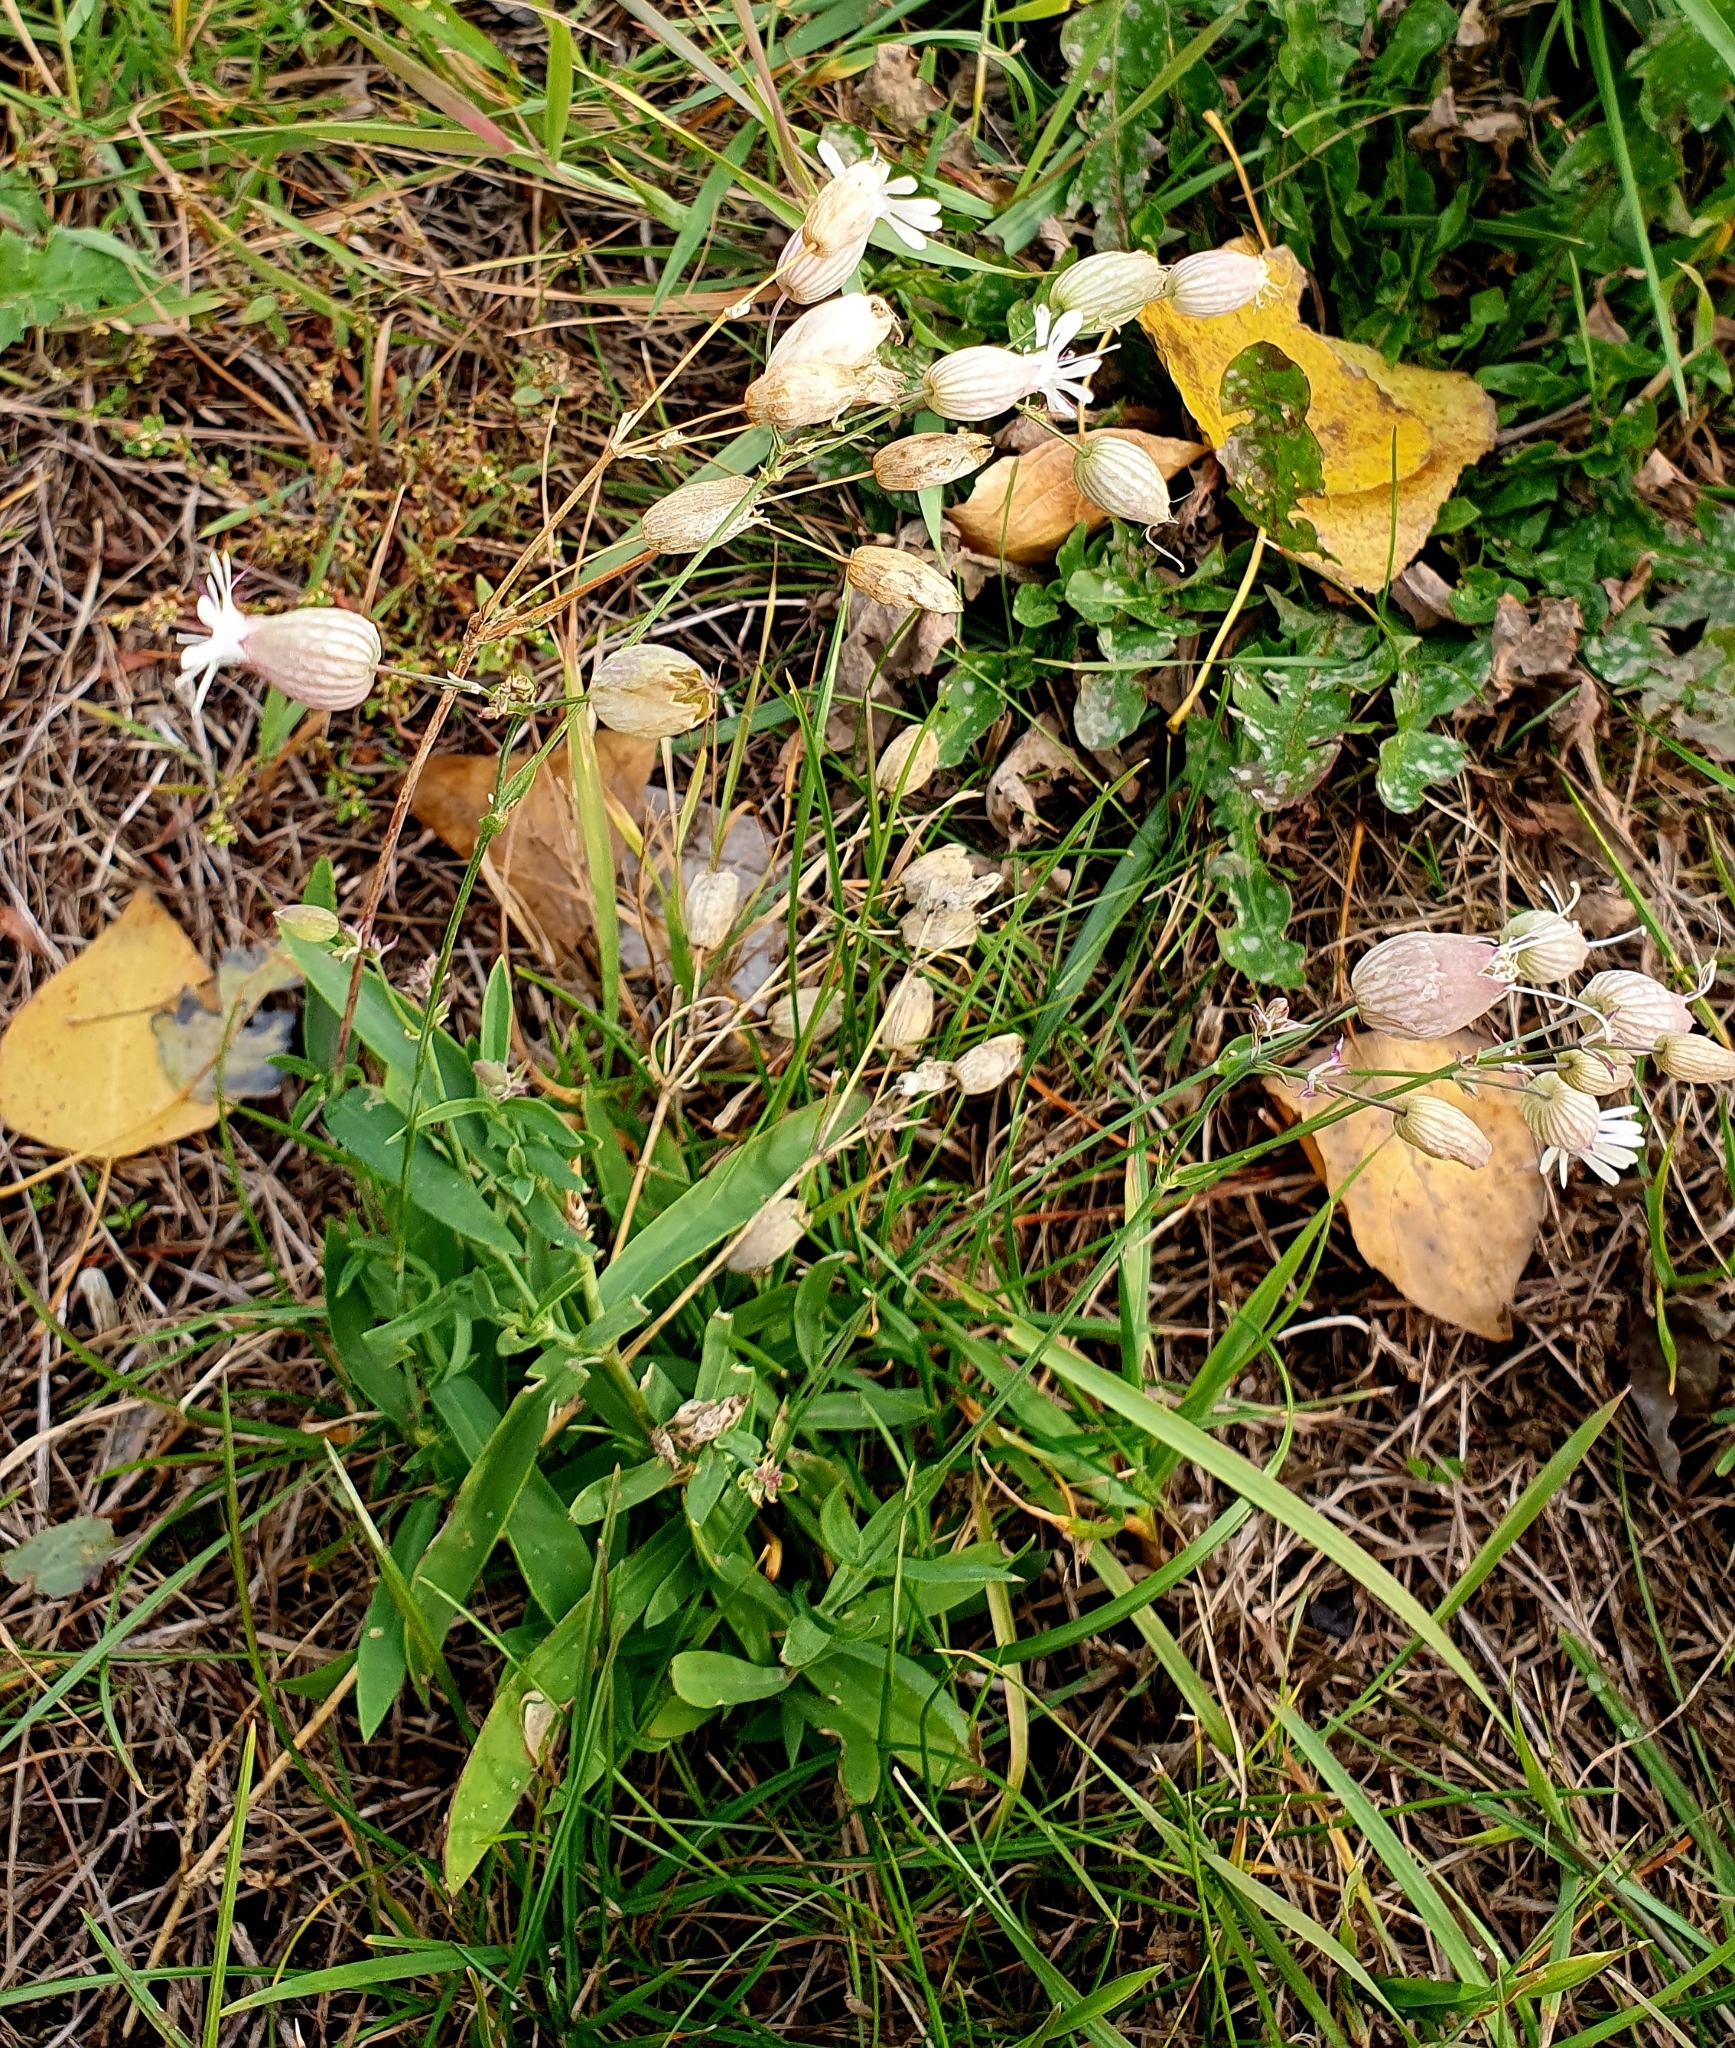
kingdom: Plantae
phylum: Tracheophyta
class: Magnoliopsida
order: Caryophyllales
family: Caryophyllaceae
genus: Silene
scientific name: Silene vulgaris
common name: Bladder campion
